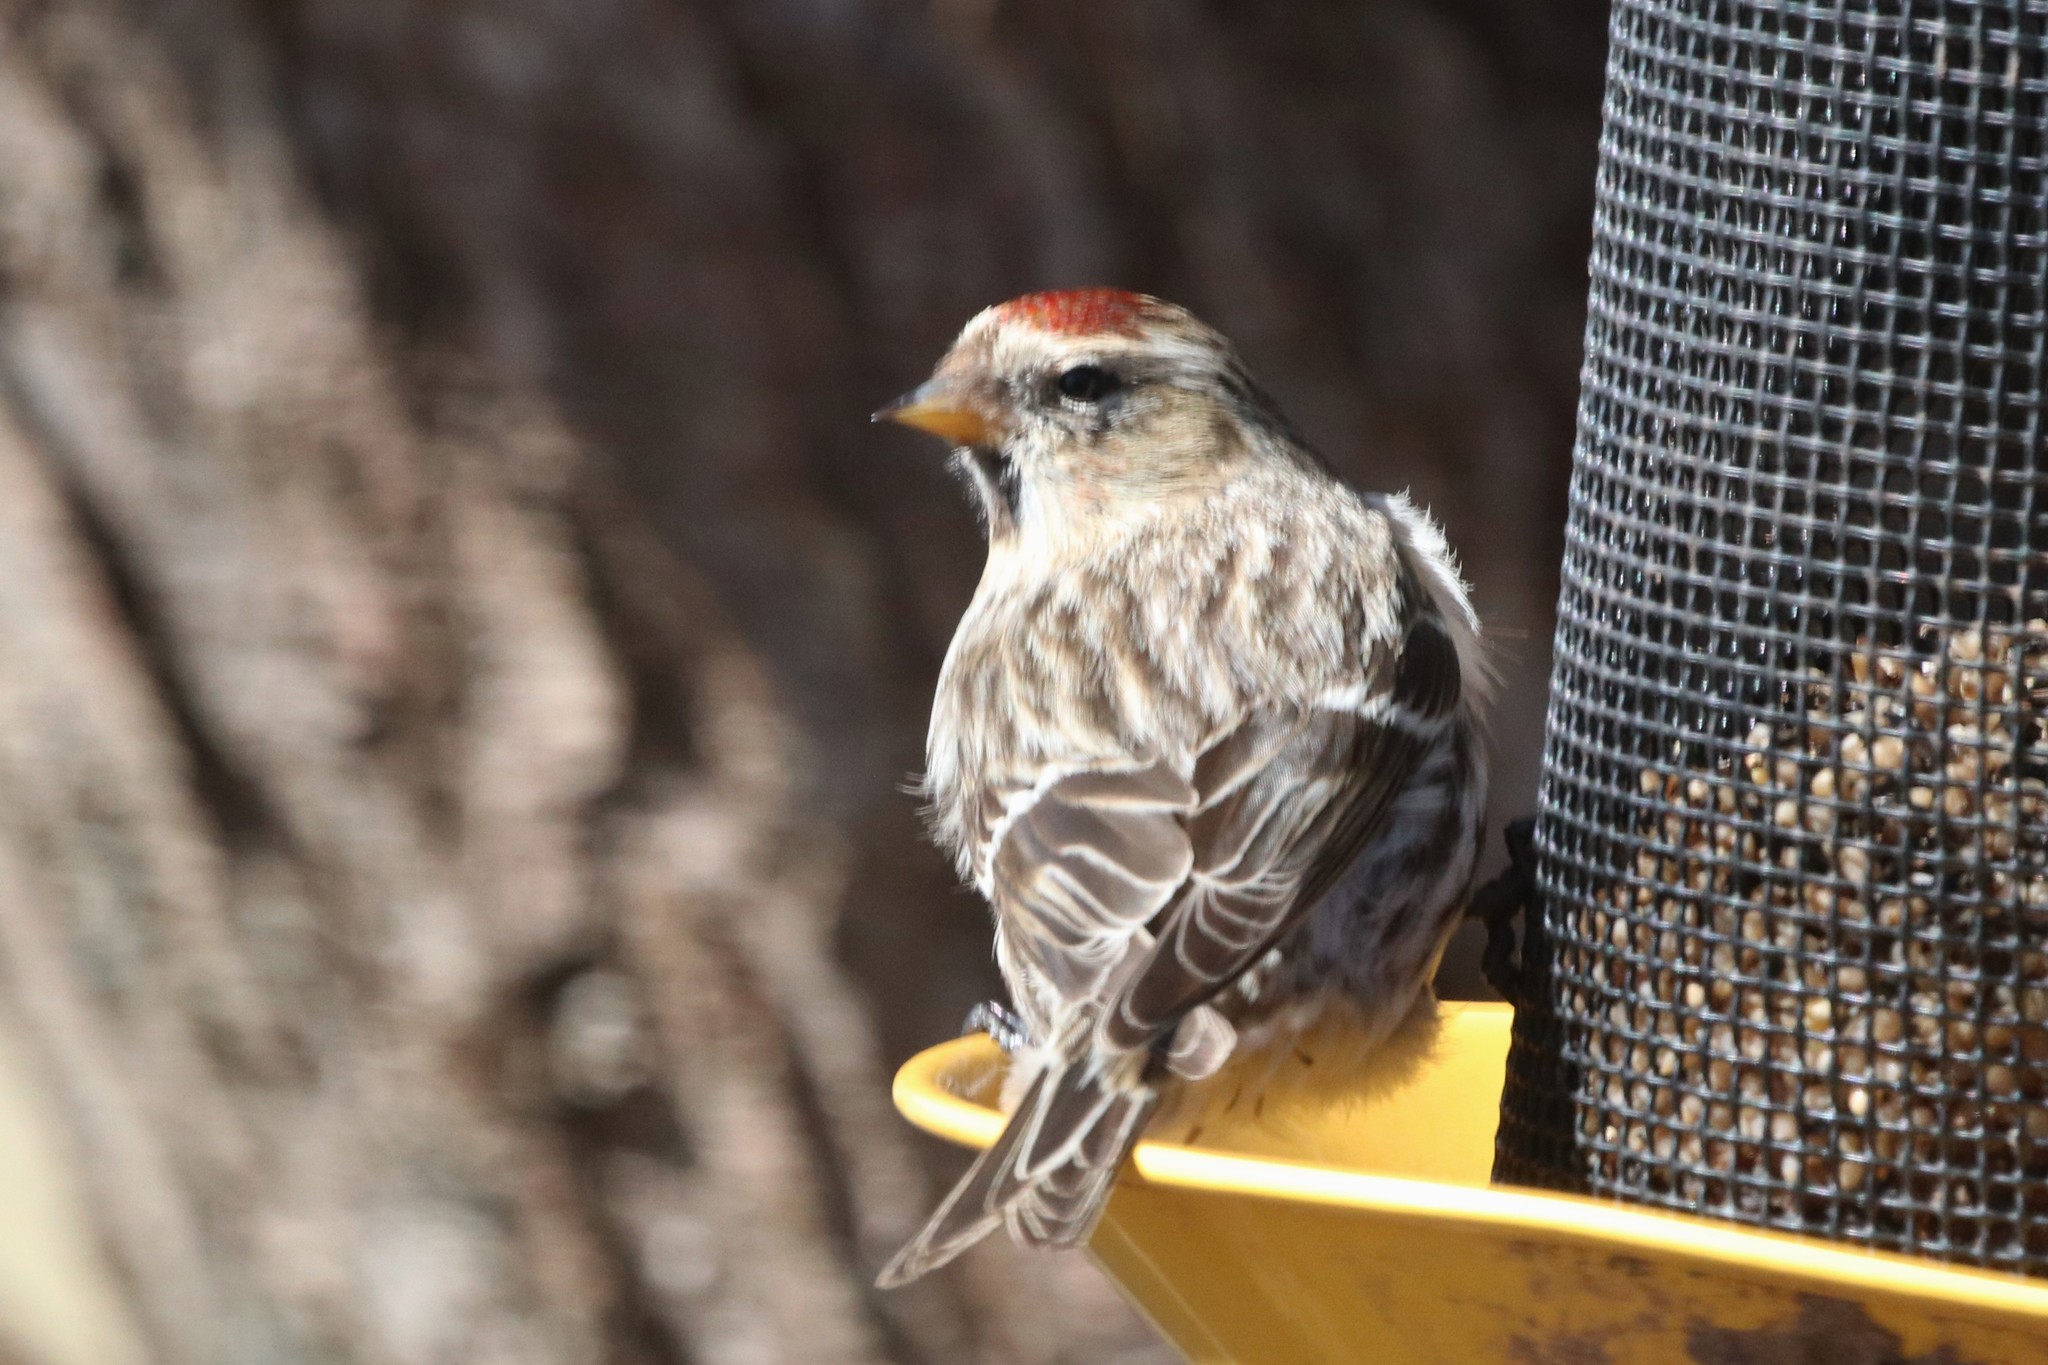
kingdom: Animalia
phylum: Chordata
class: Aves
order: Passeriformes
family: Fringillidae
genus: Acanthis
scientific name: Acanthis flammea
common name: Common redpoll
